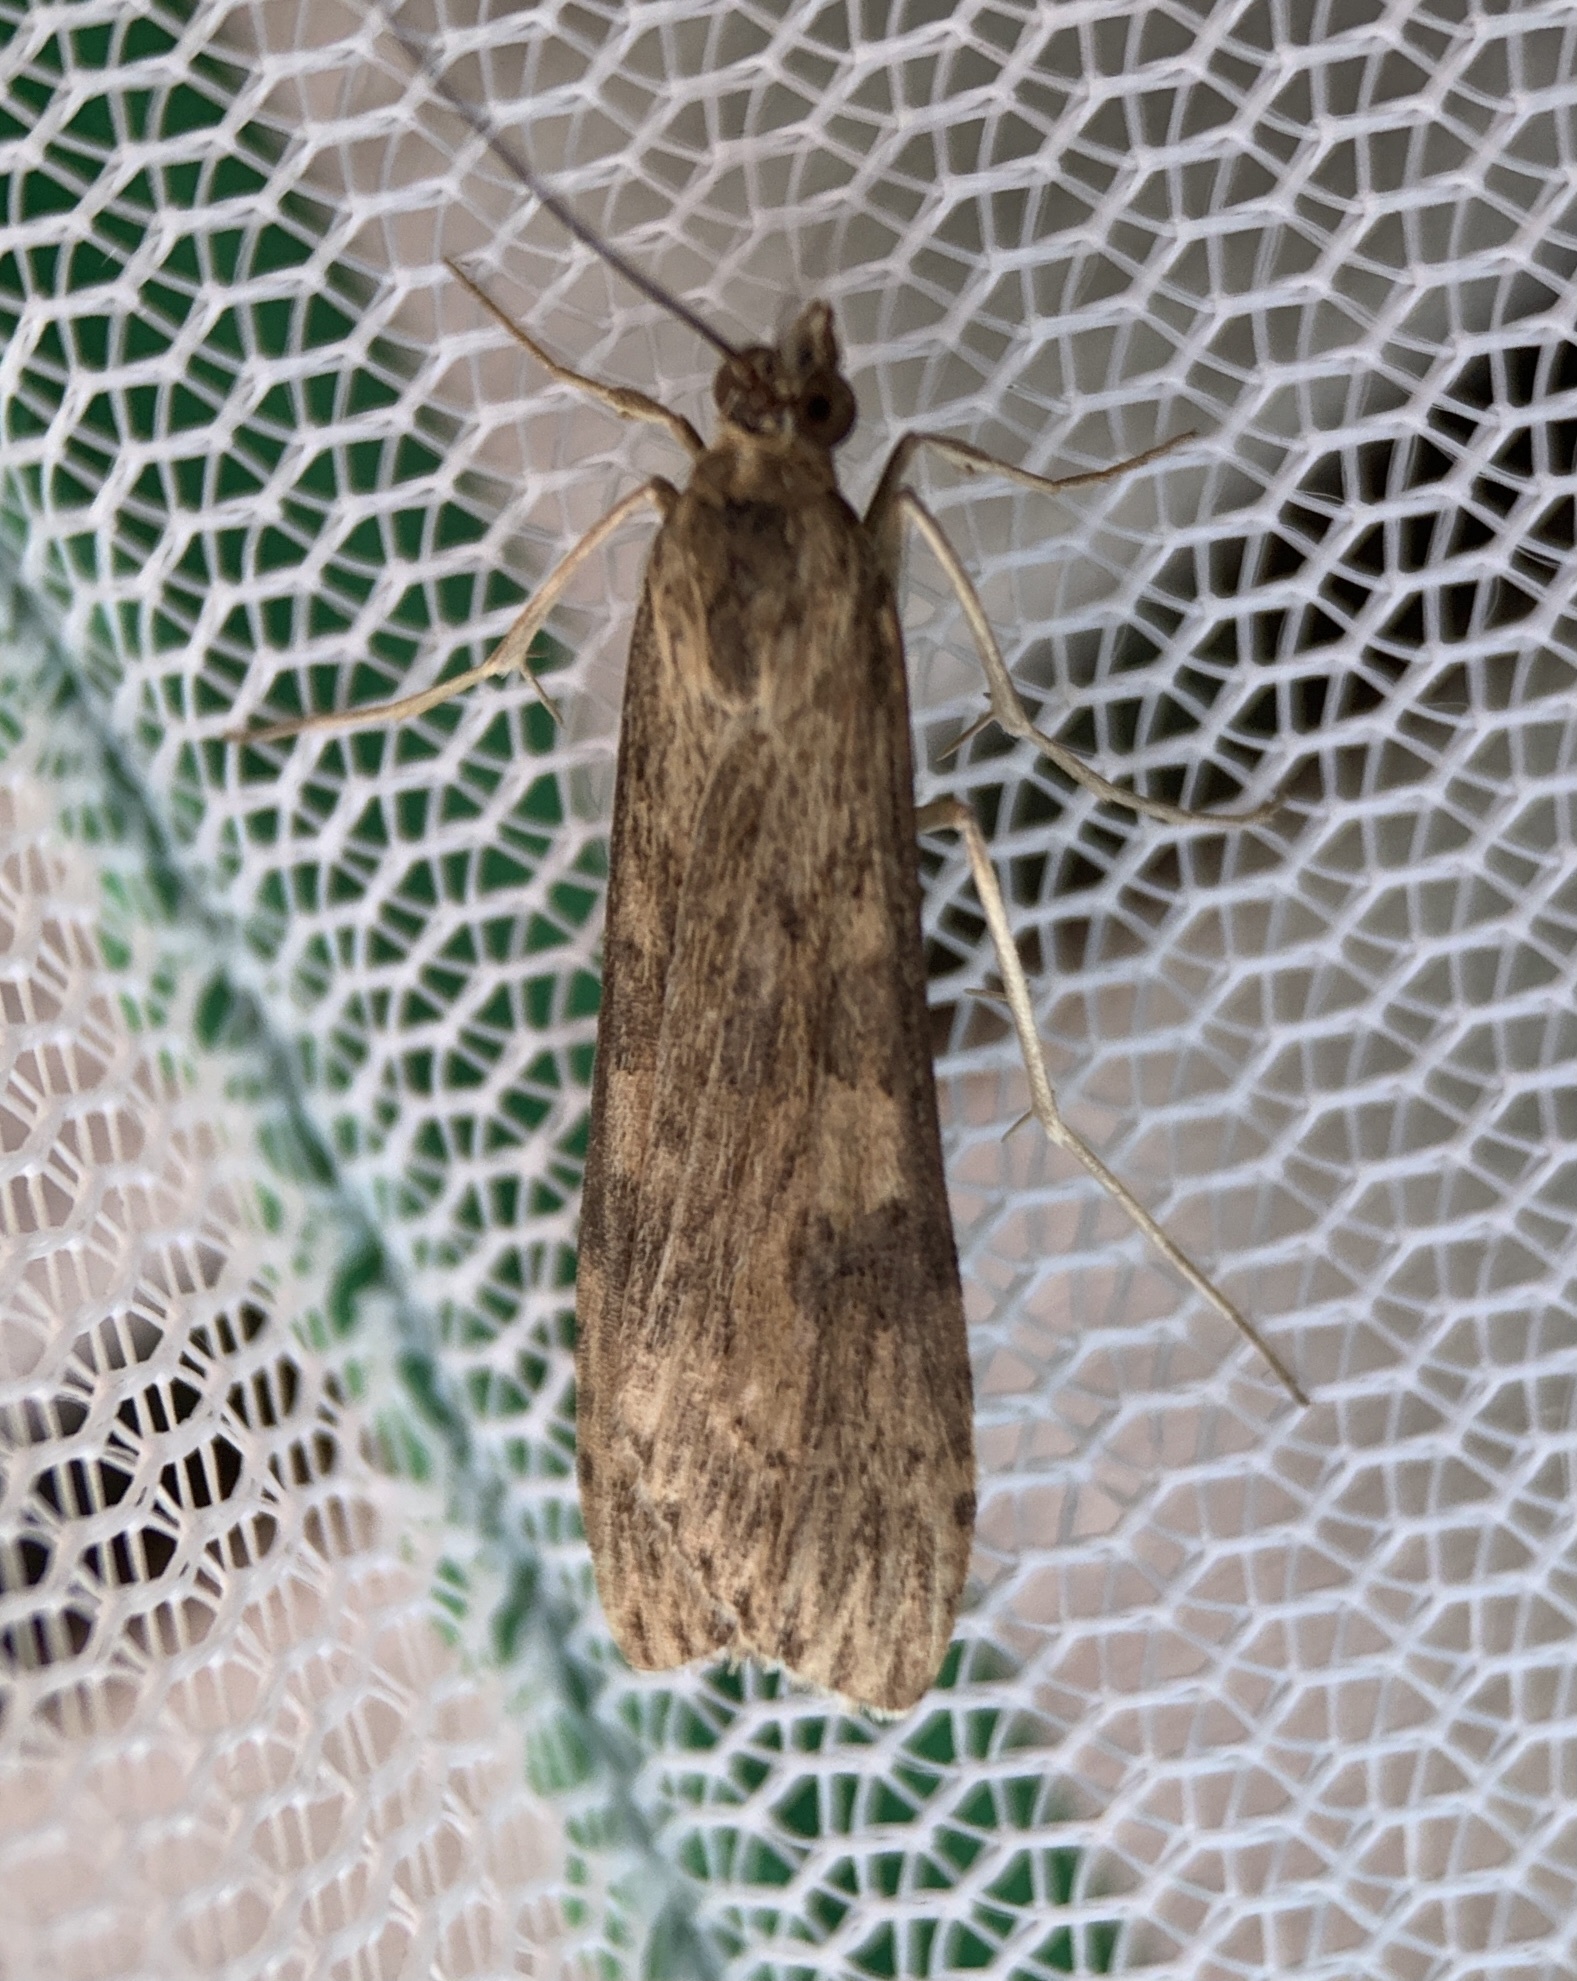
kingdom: Animalia
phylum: Arthropoda
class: Insecta
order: Lepidoptera
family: Crambidae
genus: Nomophila
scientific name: Nomophila nearctica
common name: American rush veneer
